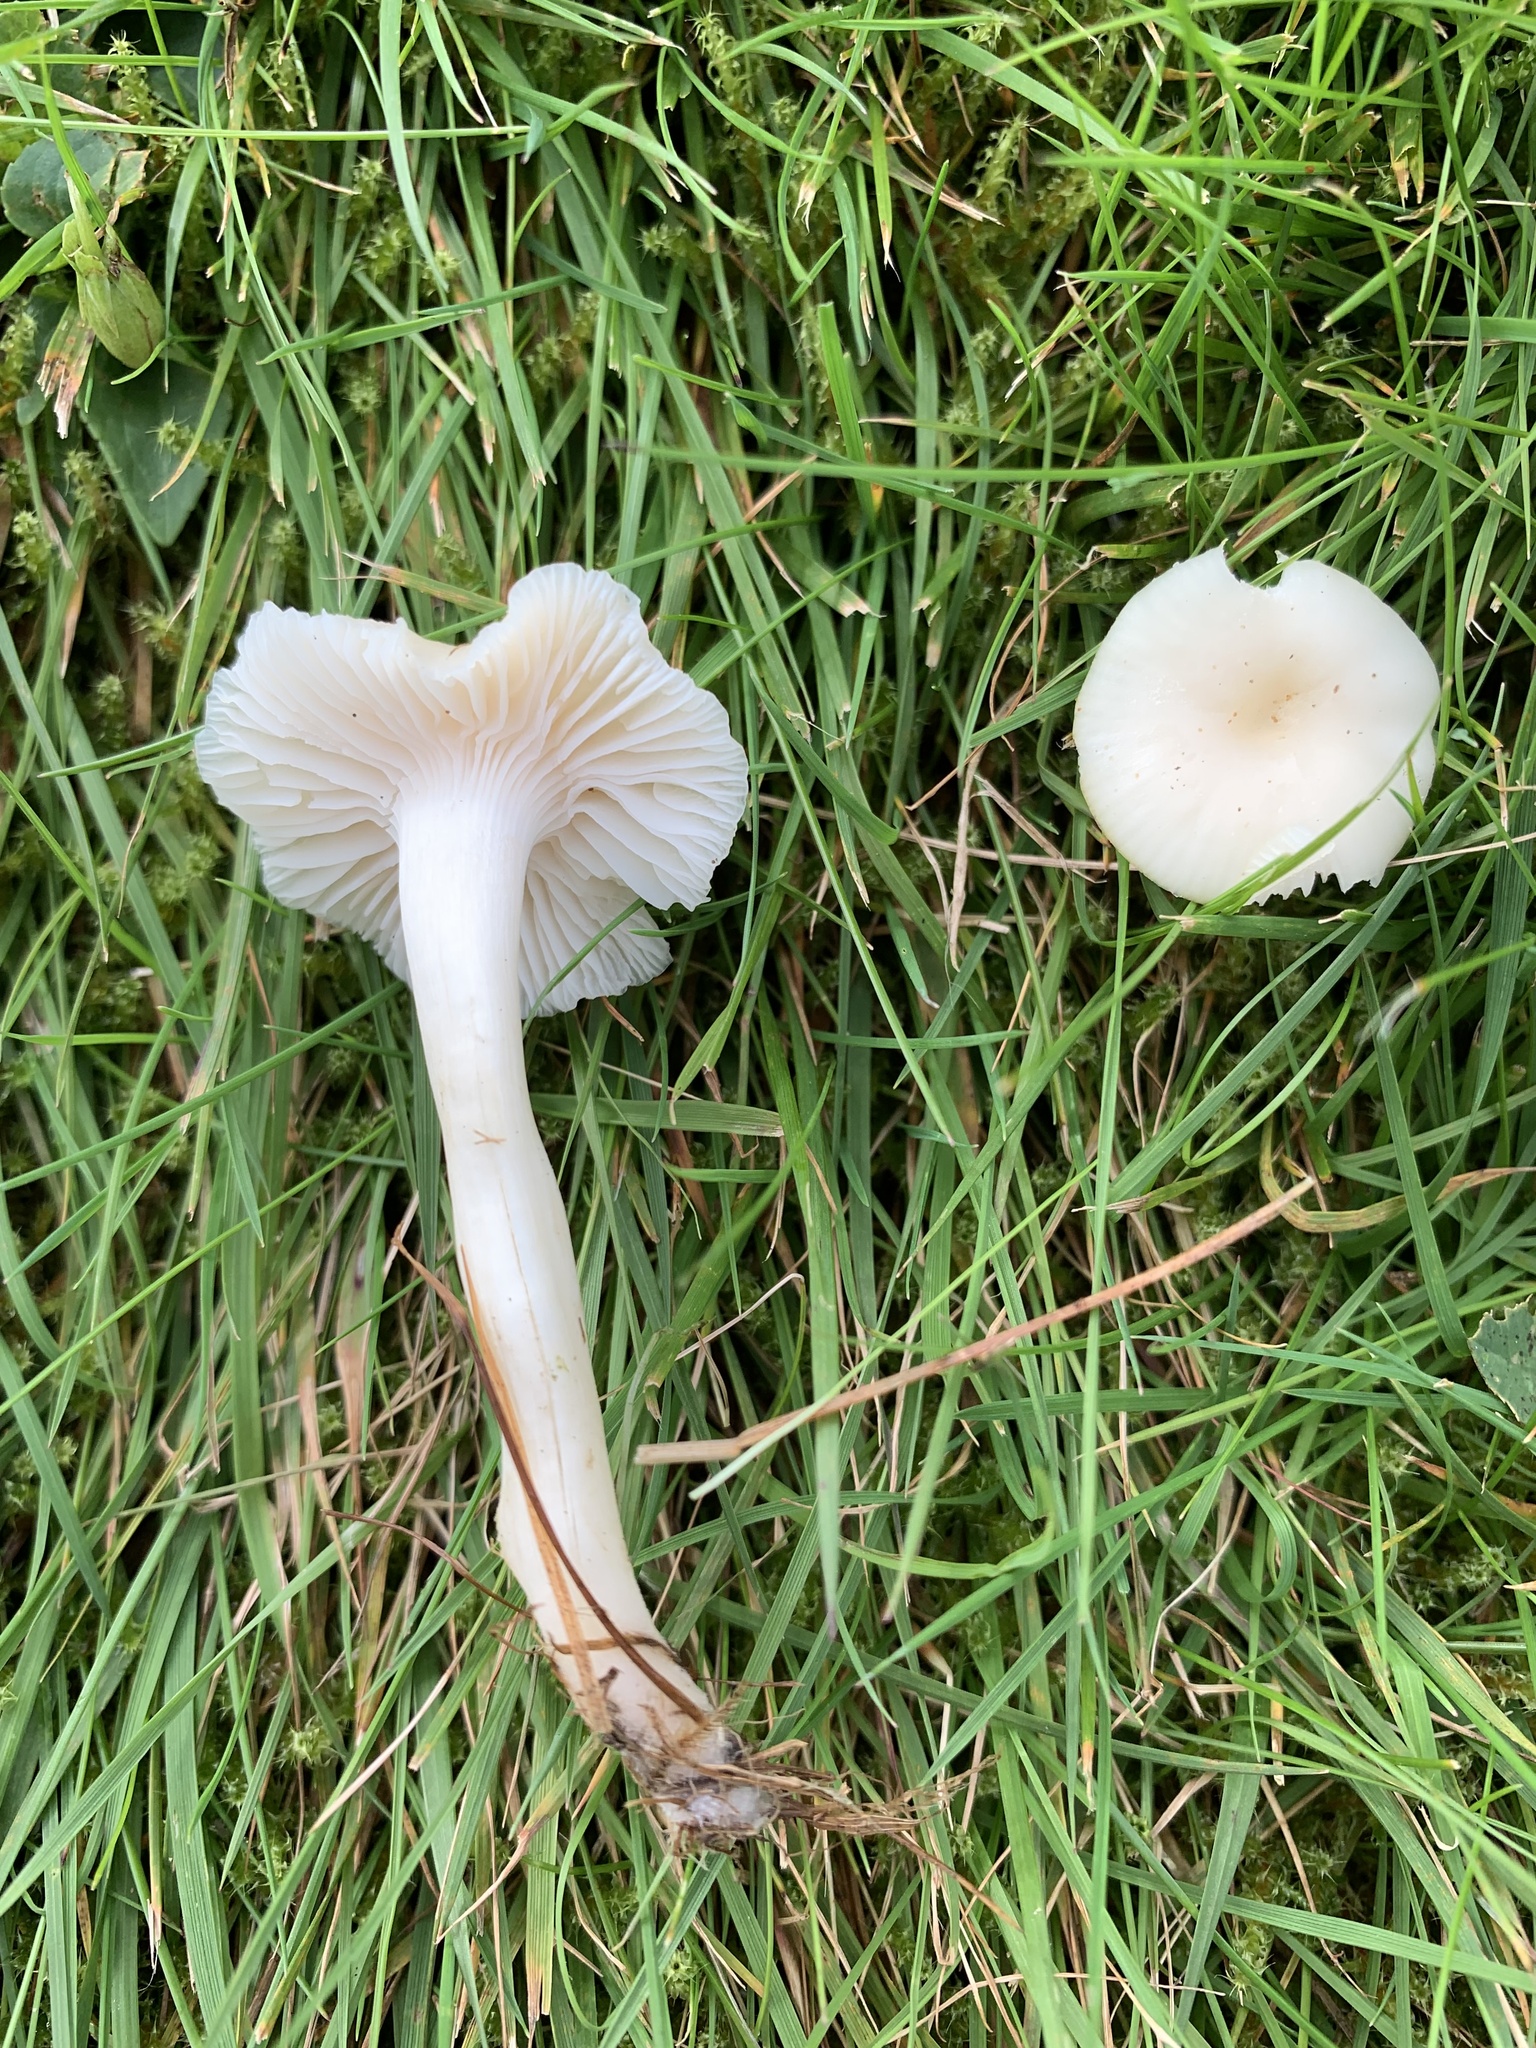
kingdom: Fungi
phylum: Basidiomycota
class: Agaricomycetes
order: Agaricales
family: Hygrophoraceae
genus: Cuphophyllus
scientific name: Cuphophyllus virgineus
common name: Snowy waxcap
